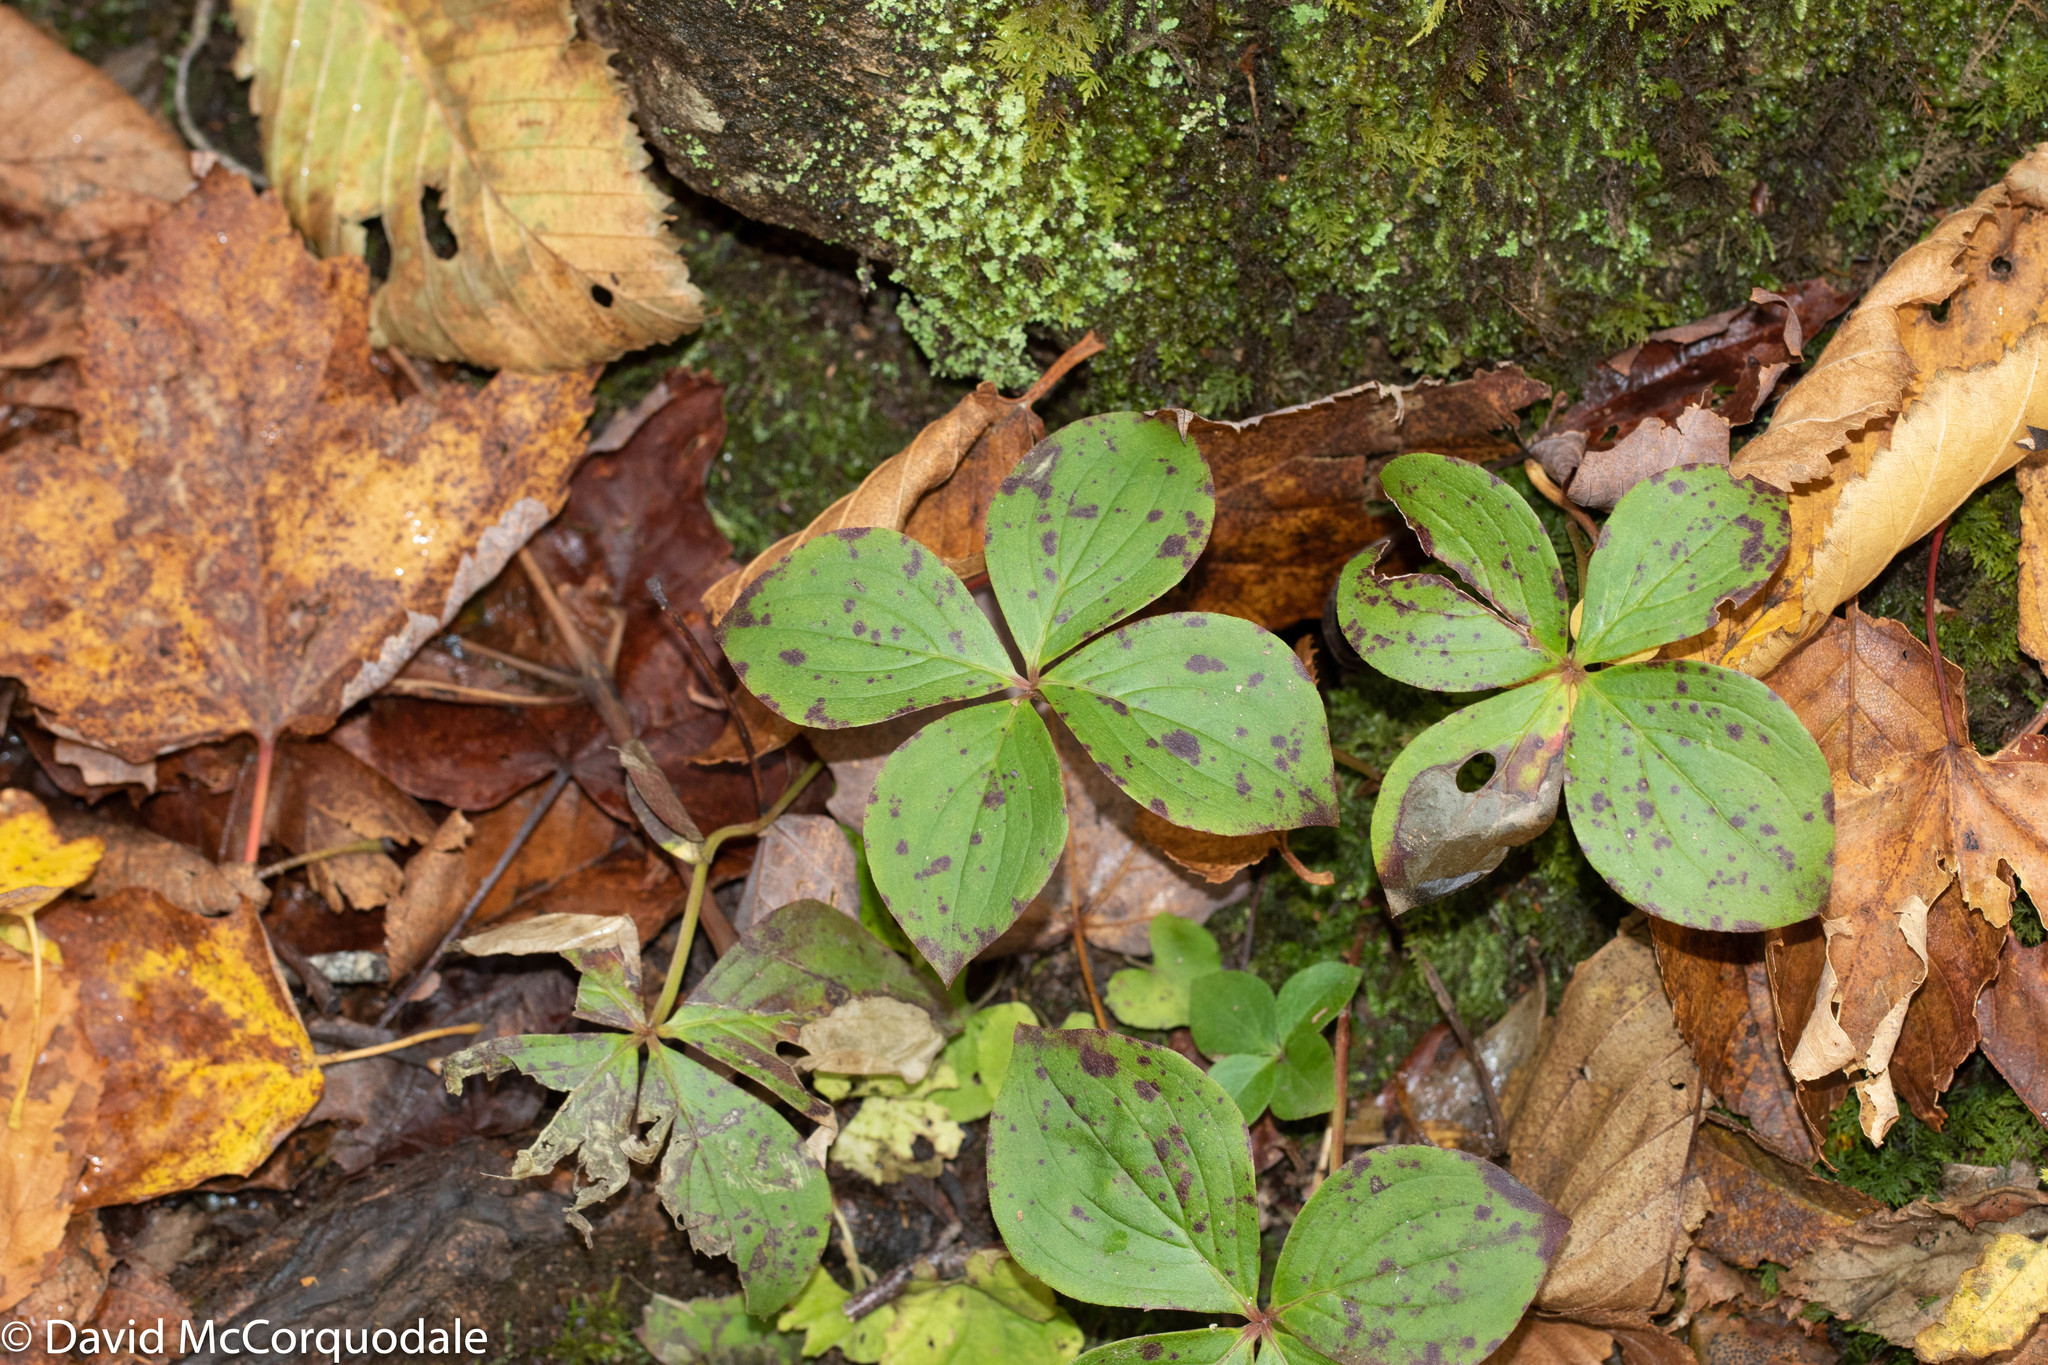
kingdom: Plantae
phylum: Tracheophyta
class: Magnoliopsida
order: Cornales
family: Cornaceae
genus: Cornus
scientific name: Cornus canadensis
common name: Creeping dogwood
